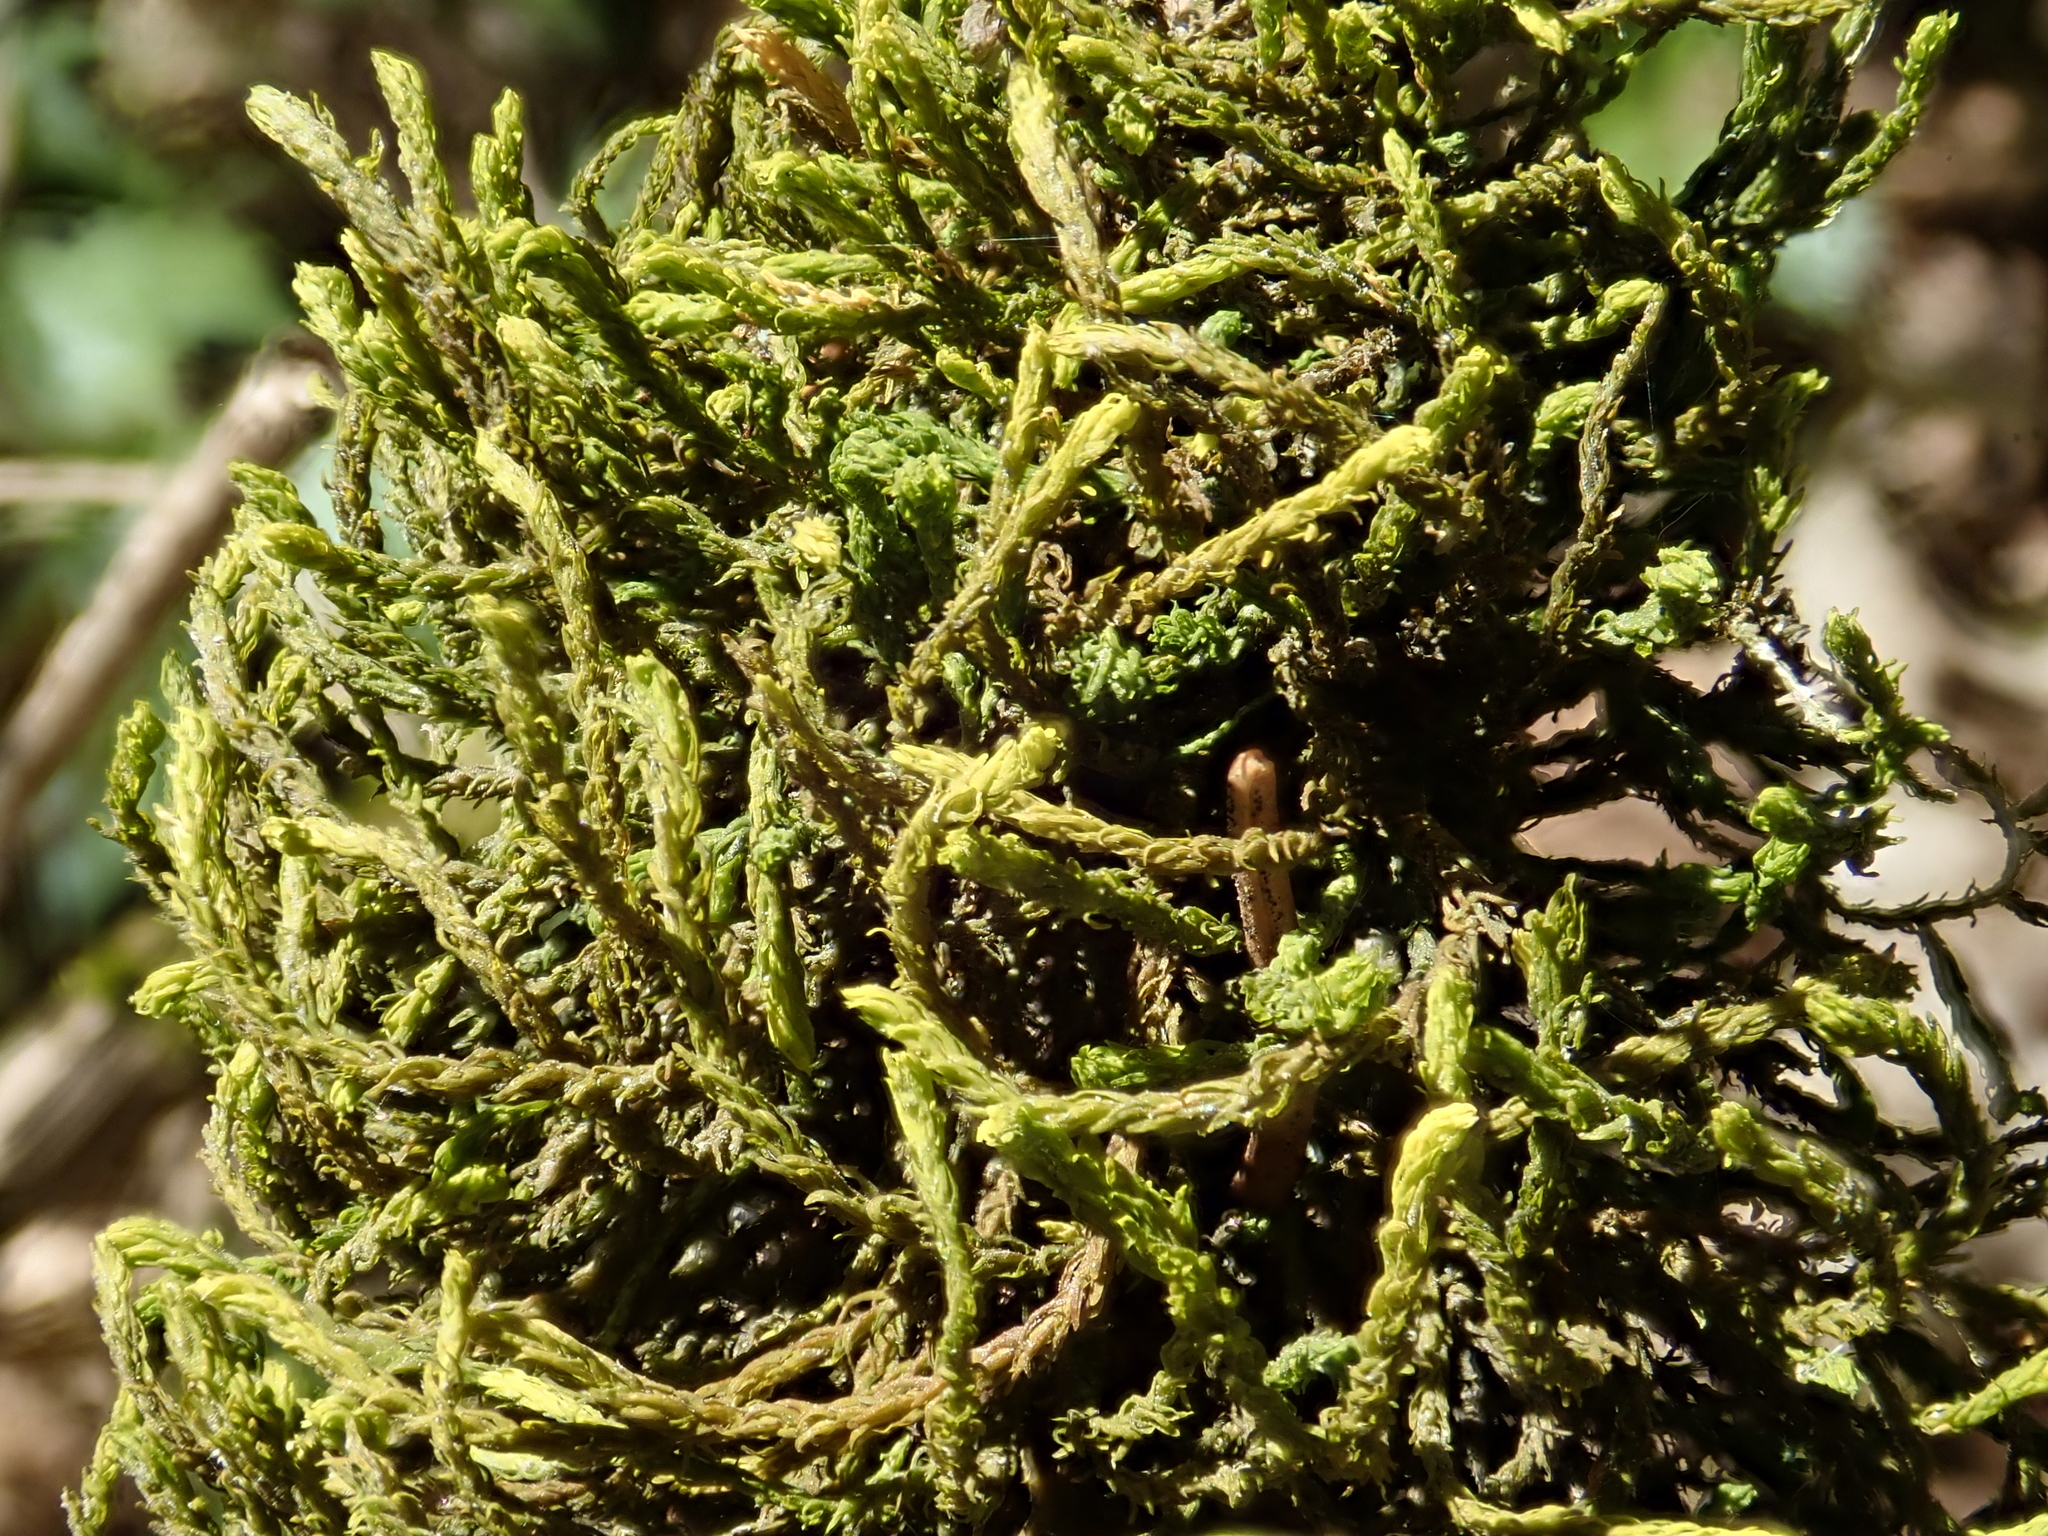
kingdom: Plantae
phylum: Bryophyta
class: Bryopsida
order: Hypnales
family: Anomodontaceae
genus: Anomodon
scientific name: Anomodon viticulosus
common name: Tall anomodon
